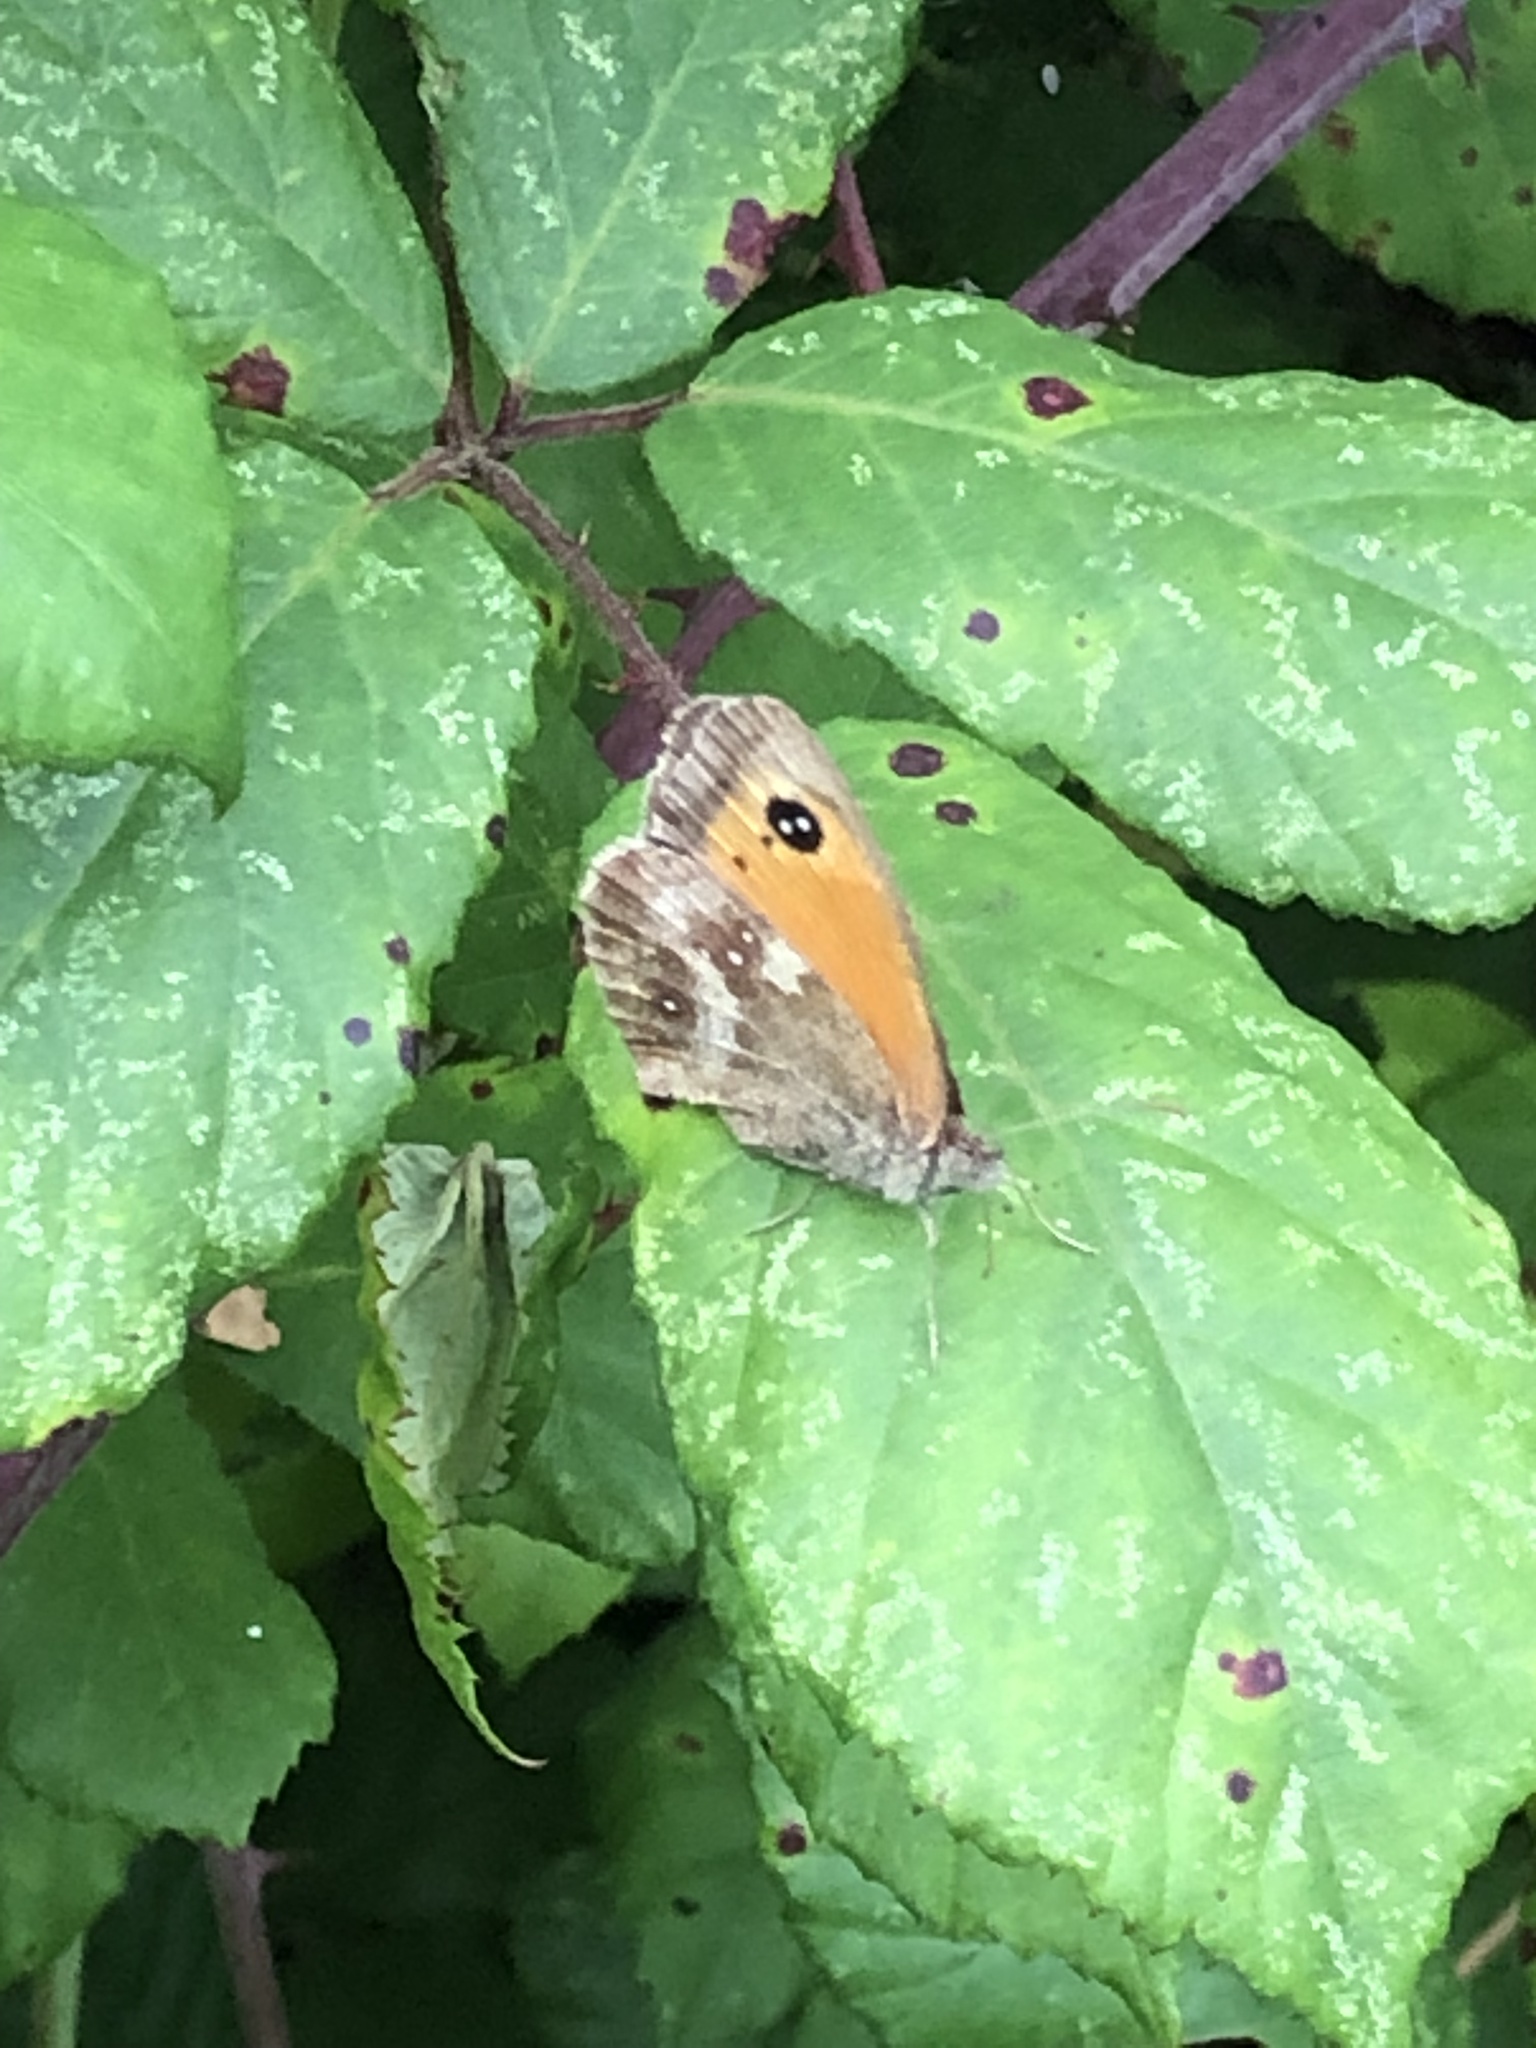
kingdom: Animalia
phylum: Arthropoda
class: Insecta
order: Lepidoptera
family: Nymphalidae
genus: Pyronia
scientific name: Pyronia tithonus
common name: Gatekeeper
